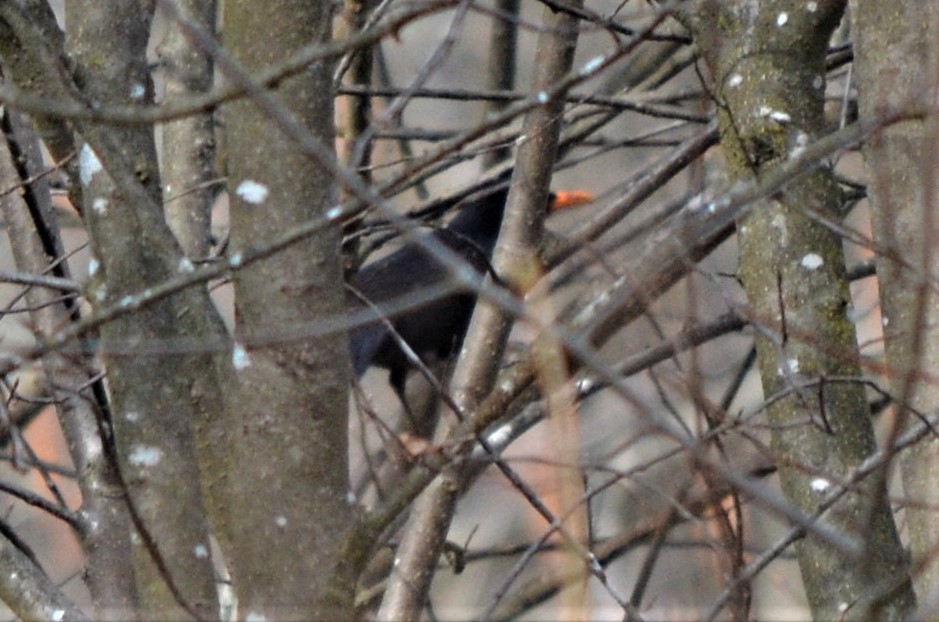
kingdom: Animalia
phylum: Chordata
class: Aves
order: Passeriformes
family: Turdidae
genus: Turdus
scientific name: Turdus merula
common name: Common blackbird
